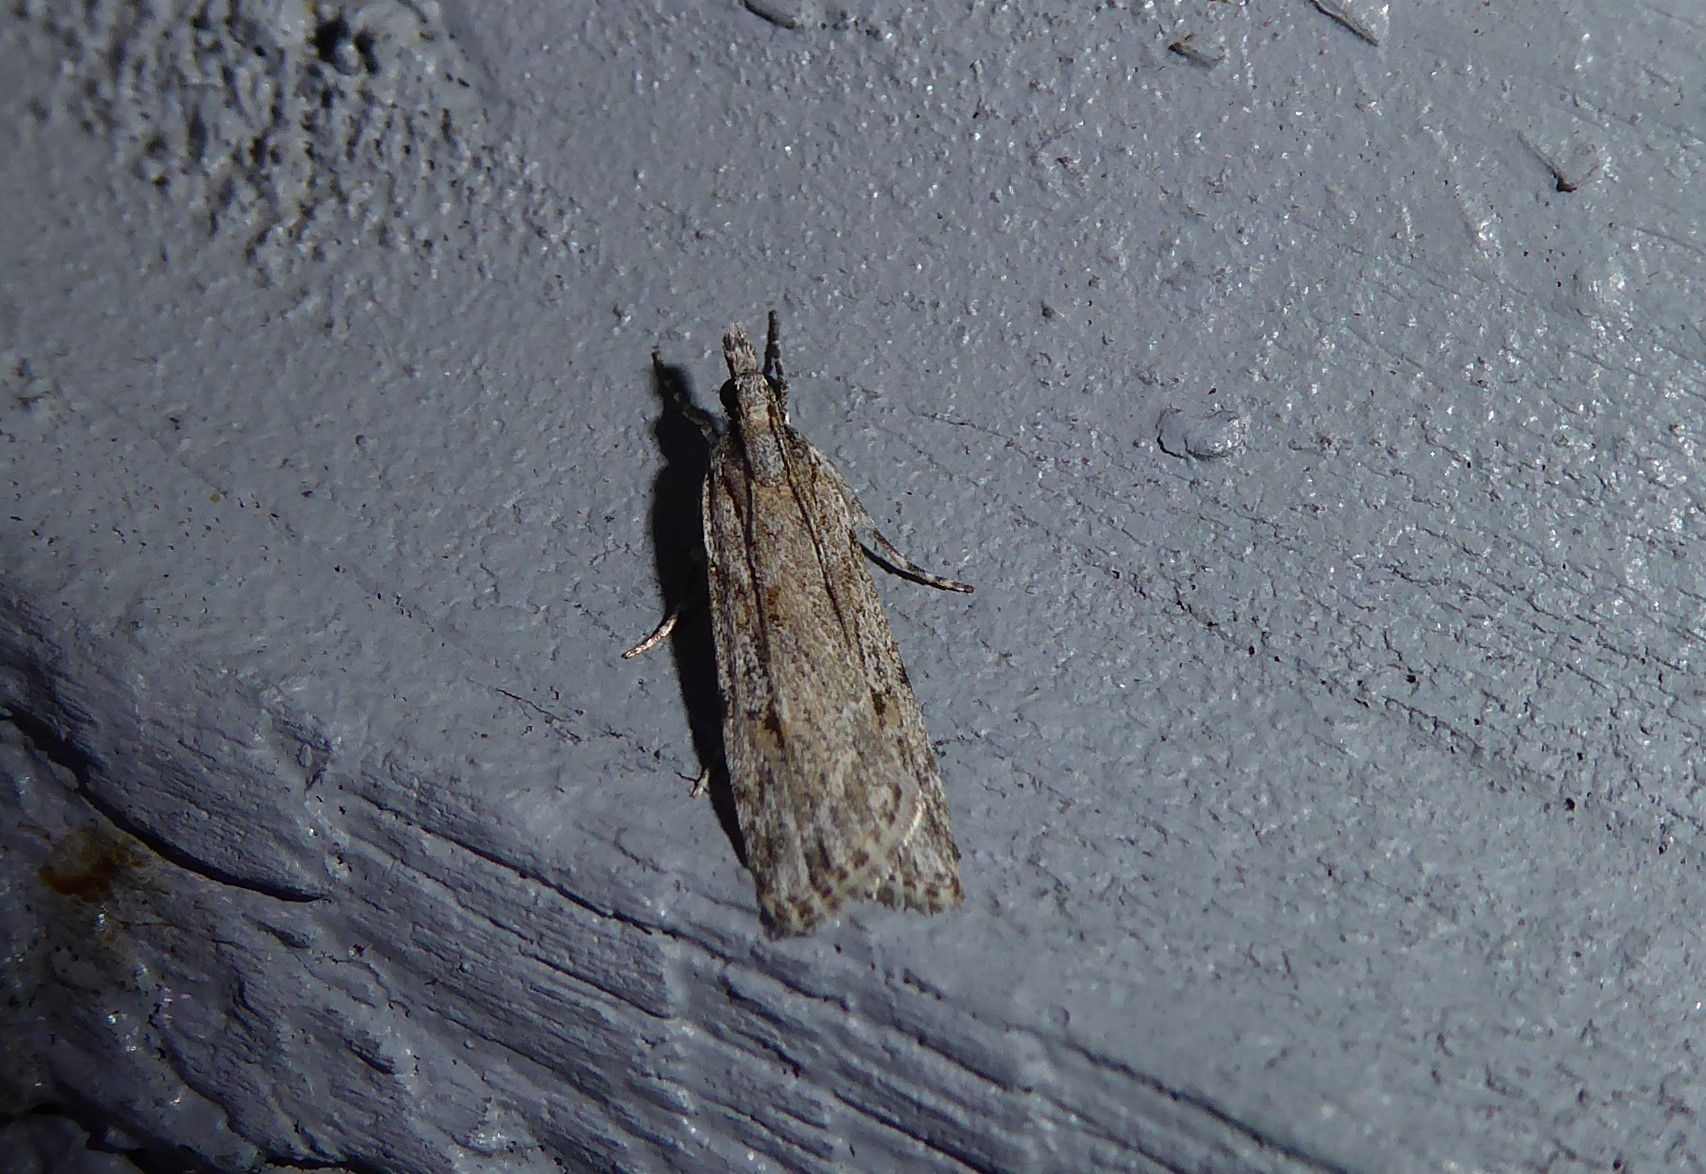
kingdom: Animalia
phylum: Arthropoda
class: Insecta
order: Lepidoptera
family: Crambidae
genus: Scoparia
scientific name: Scoparia chalicodes
